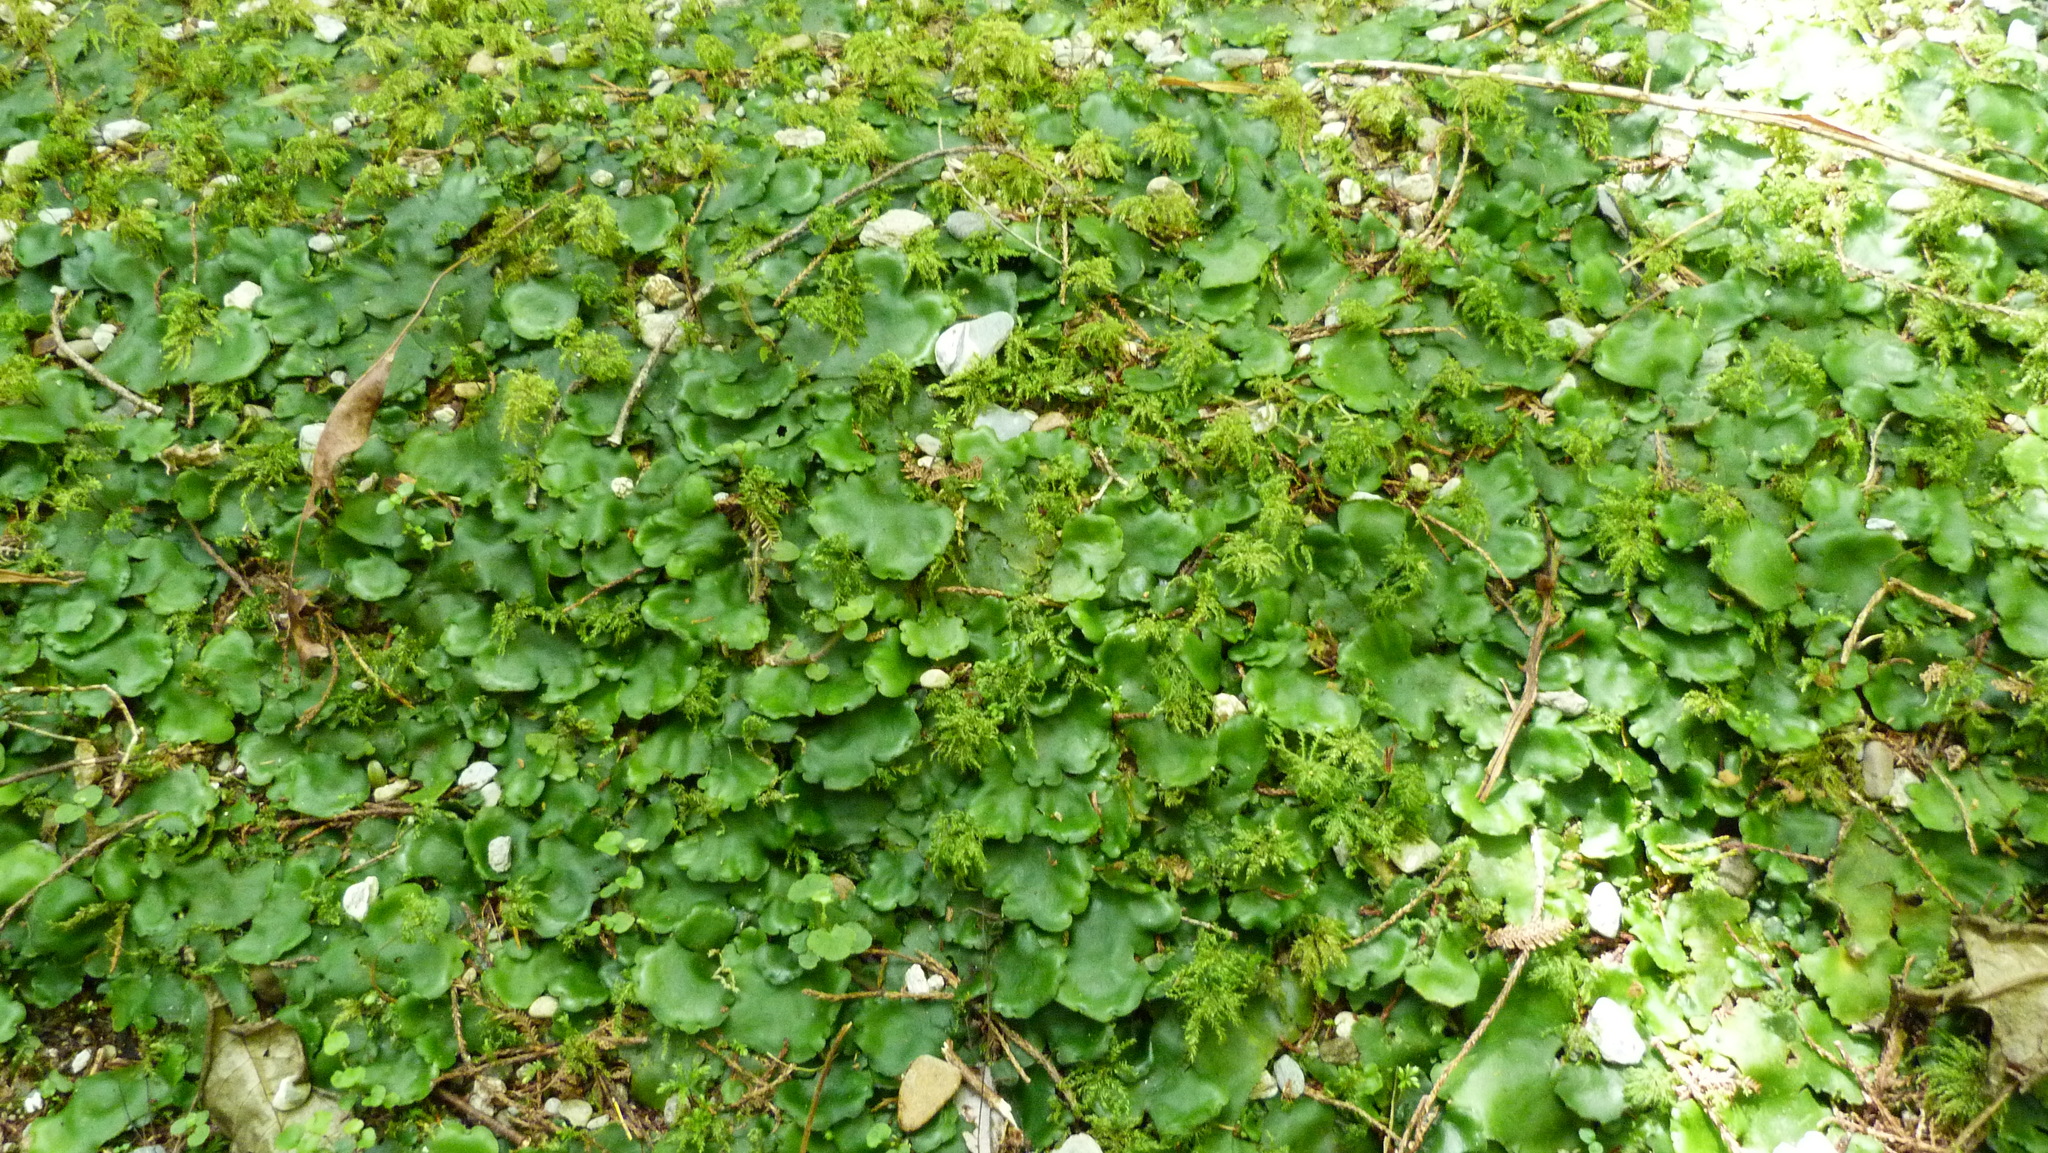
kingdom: Plantae
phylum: Marchantiophyta
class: Marchantiopsida
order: Marchantiales
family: Monocleaceae
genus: Monoclea
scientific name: Monoclea forsteri
